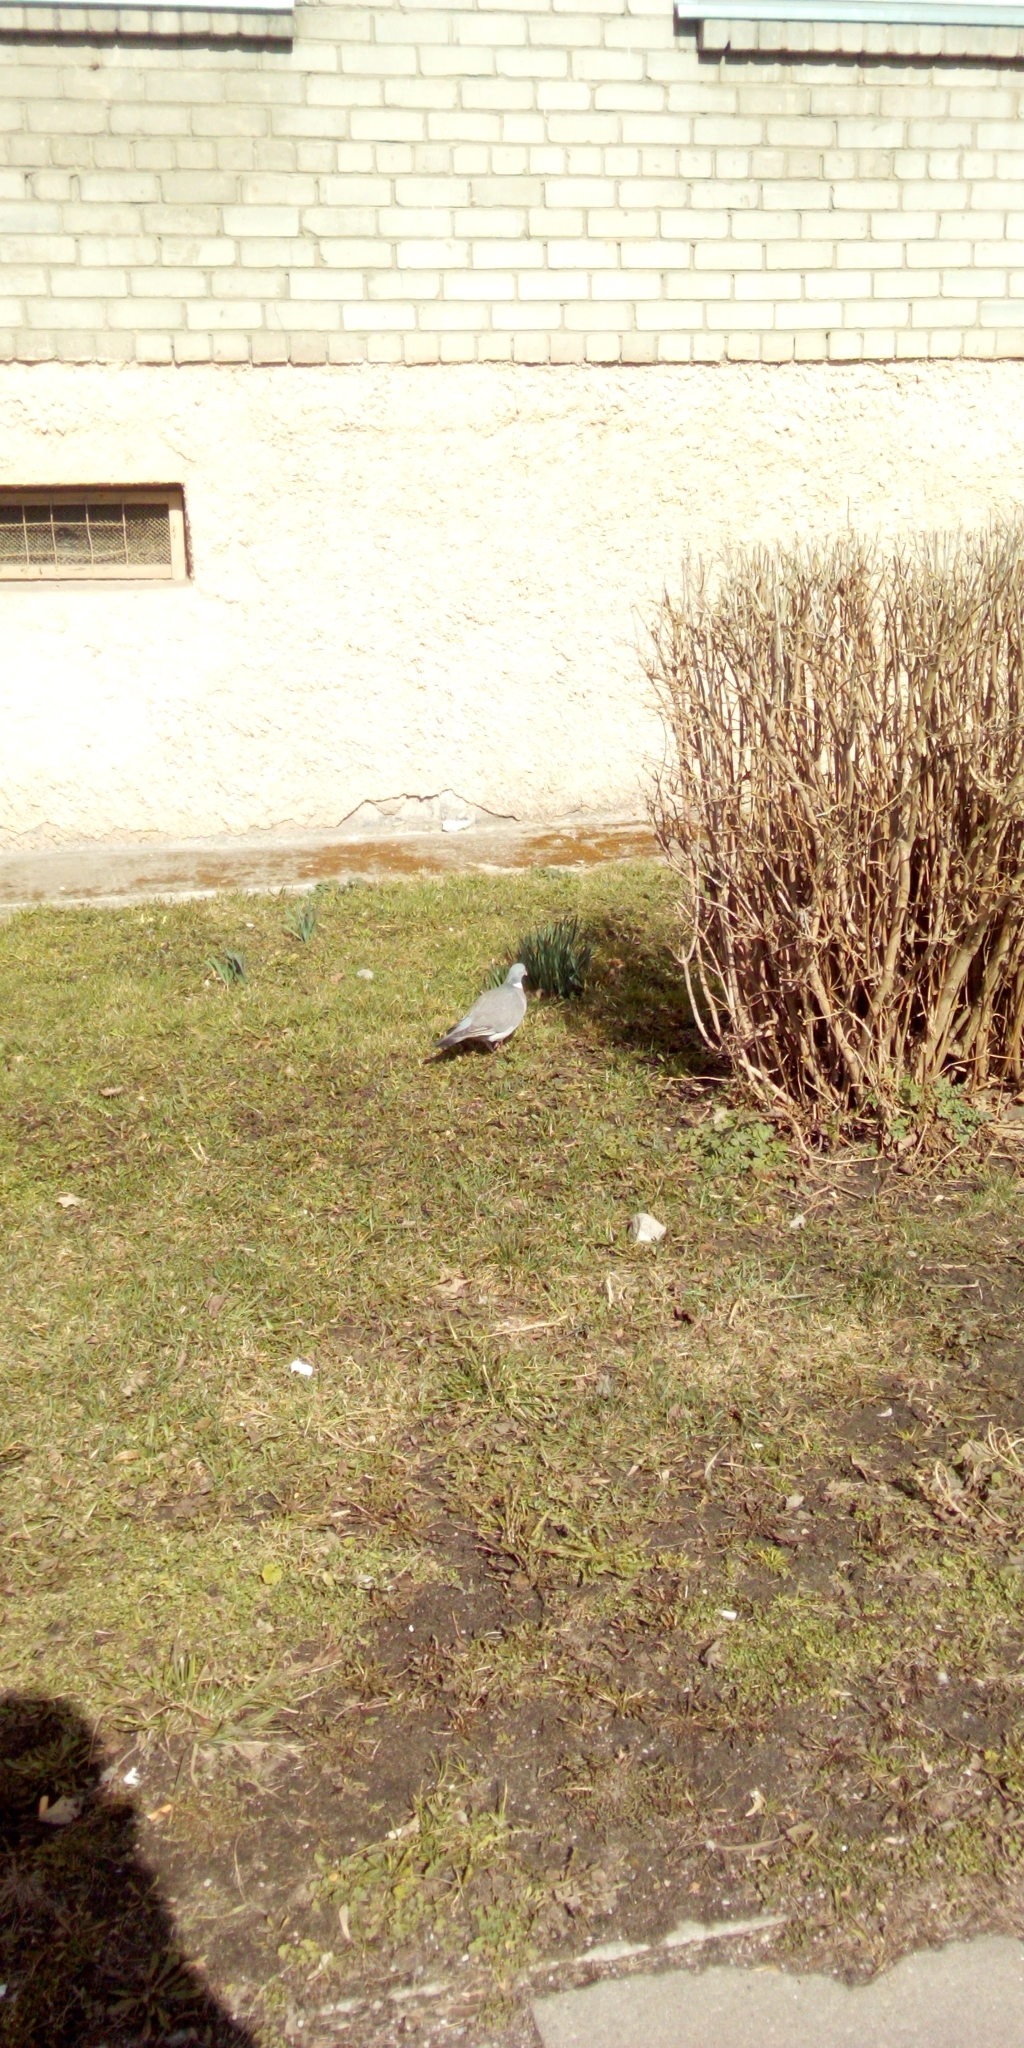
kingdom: Animalia
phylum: Chordata
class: Aves
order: Columbiformes
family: Columbidae
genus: Columba
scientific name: Columba palumbus
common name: Common wood pigeon
